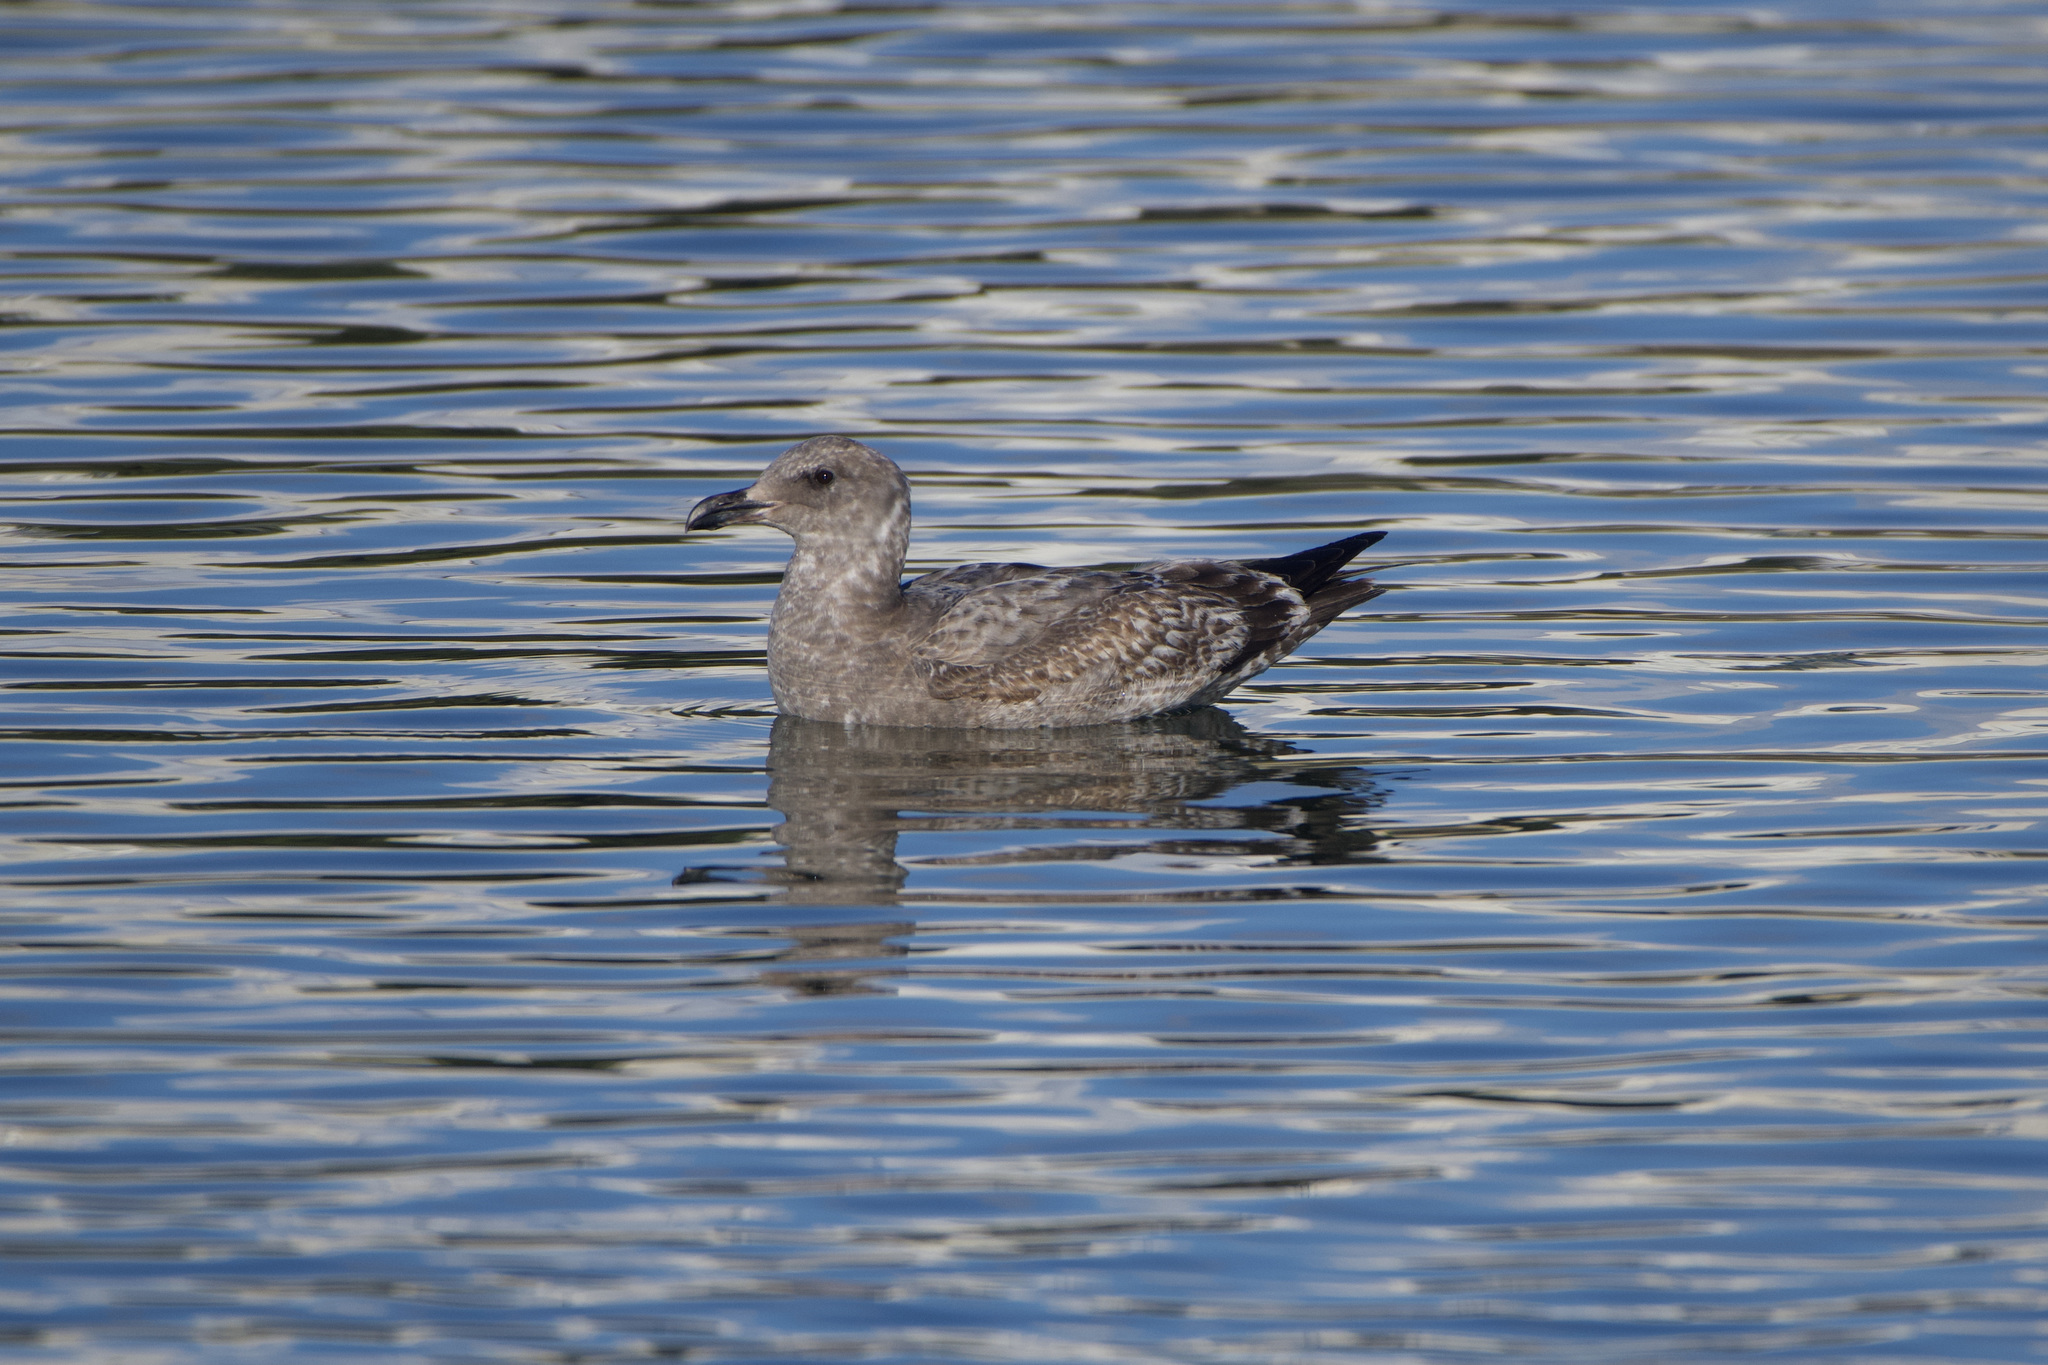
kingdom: Animalia
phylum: Chordata
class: Aves
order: Charadriiformes
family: Laridae
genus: Larus
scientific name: Larus occidentalis
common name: Western gull
